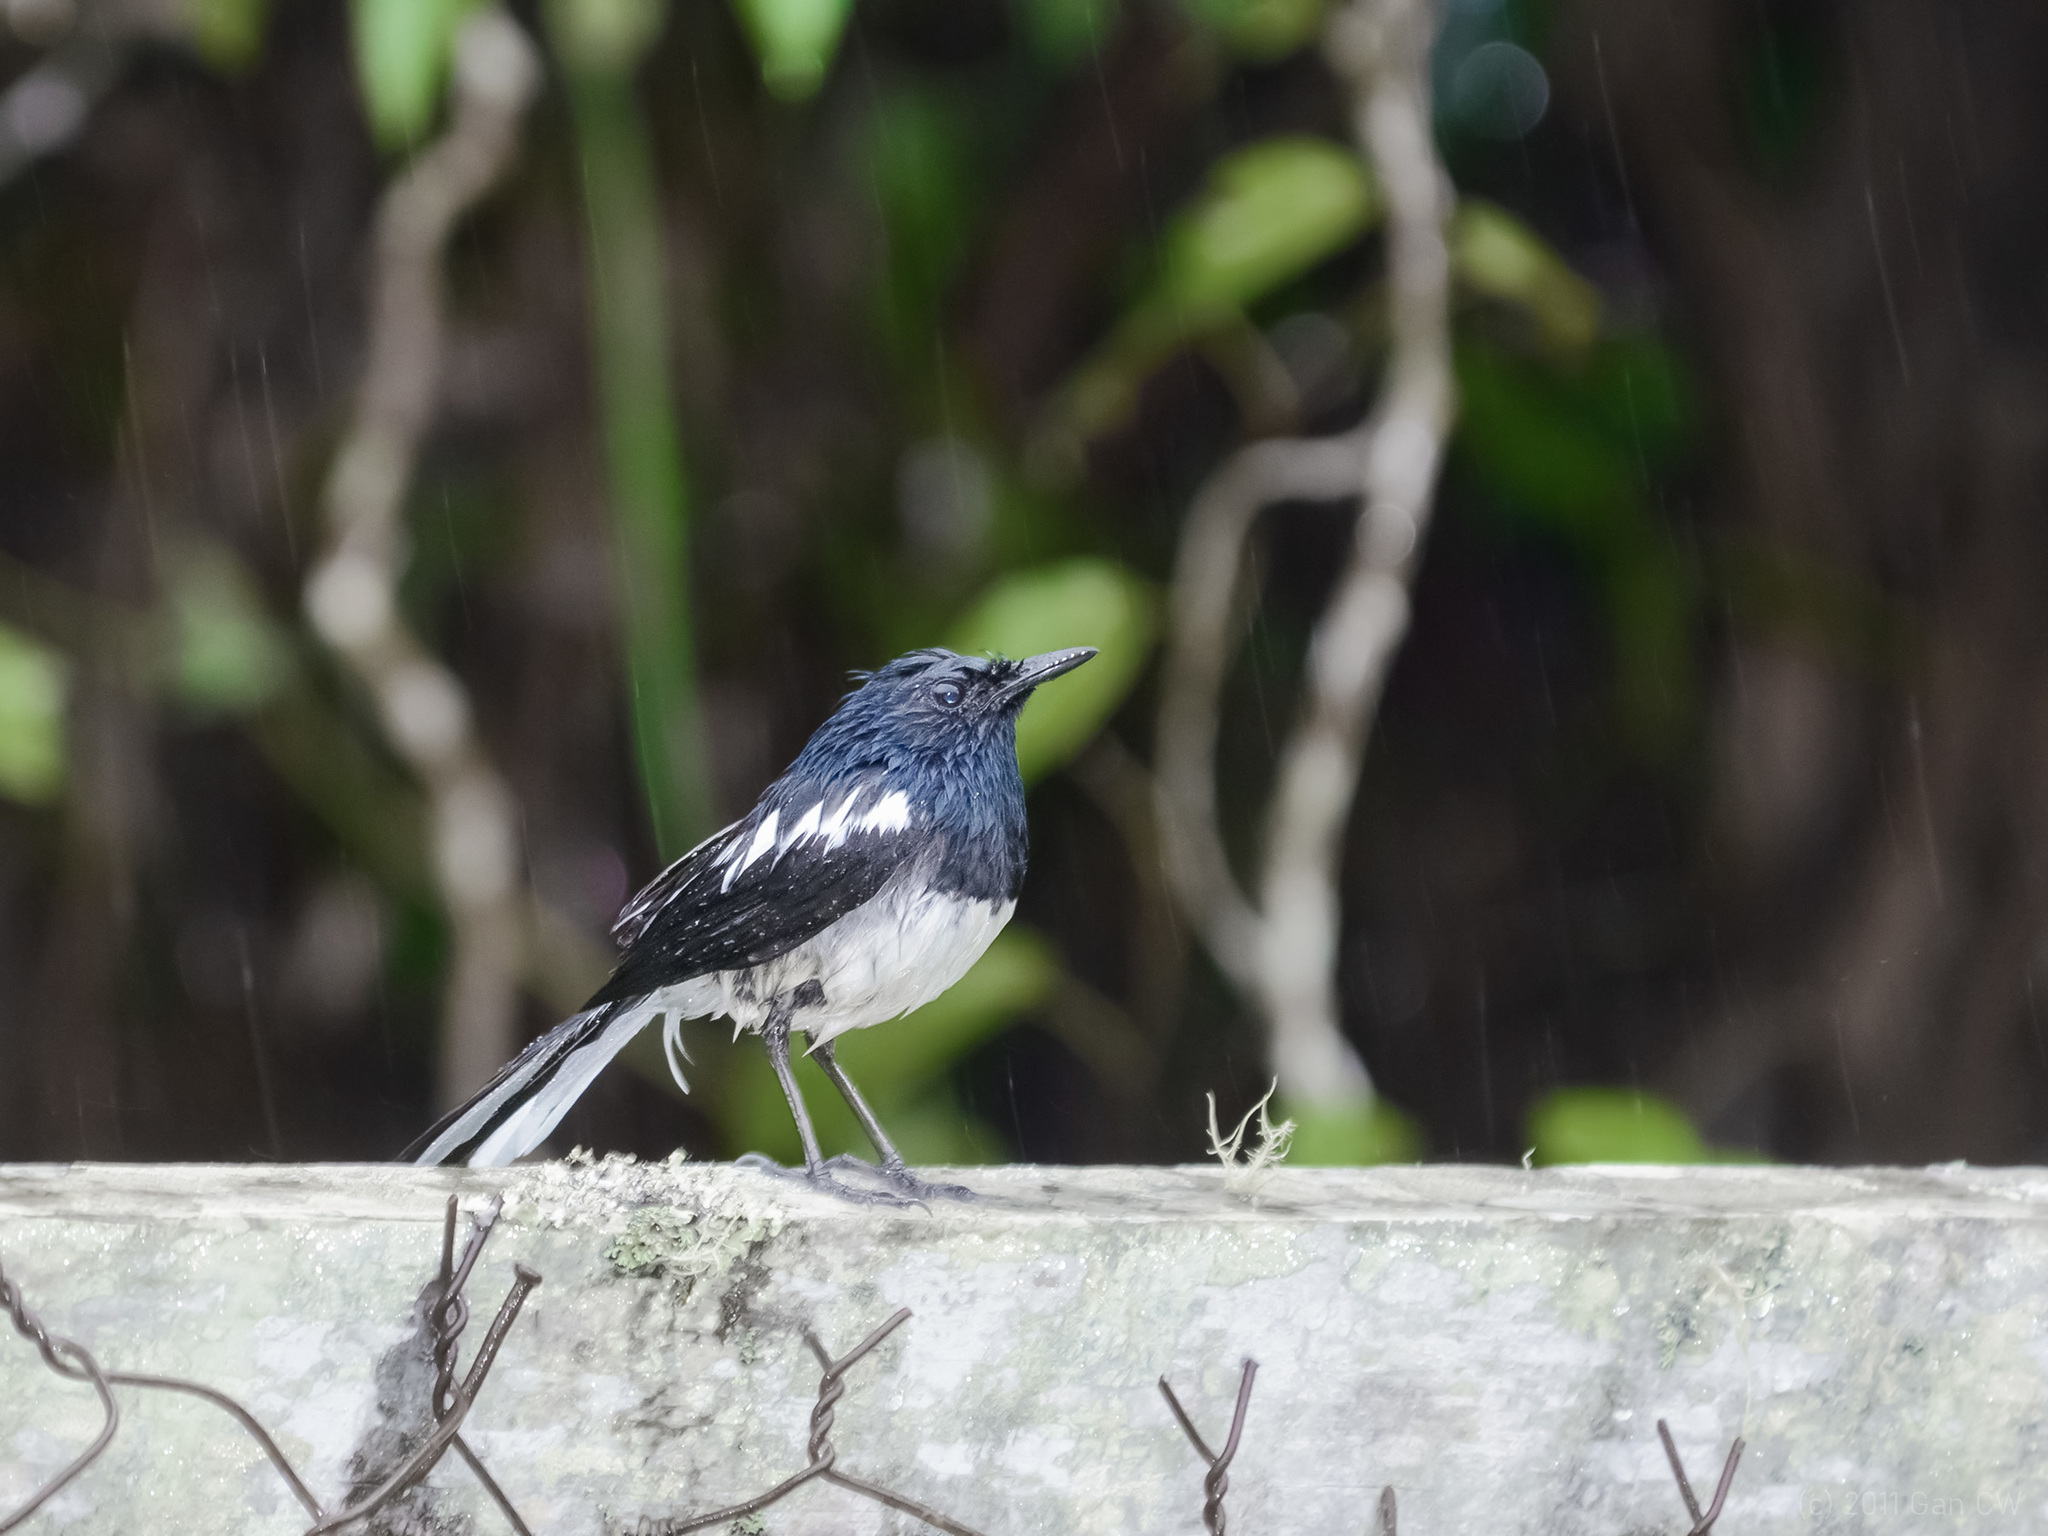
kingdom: Animalia
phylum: Chordata
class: Aves
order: Passeriformes
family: Muscicapidae
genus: Copsychus
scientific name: Copsychus saularis
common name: Oriental magpie-robin
